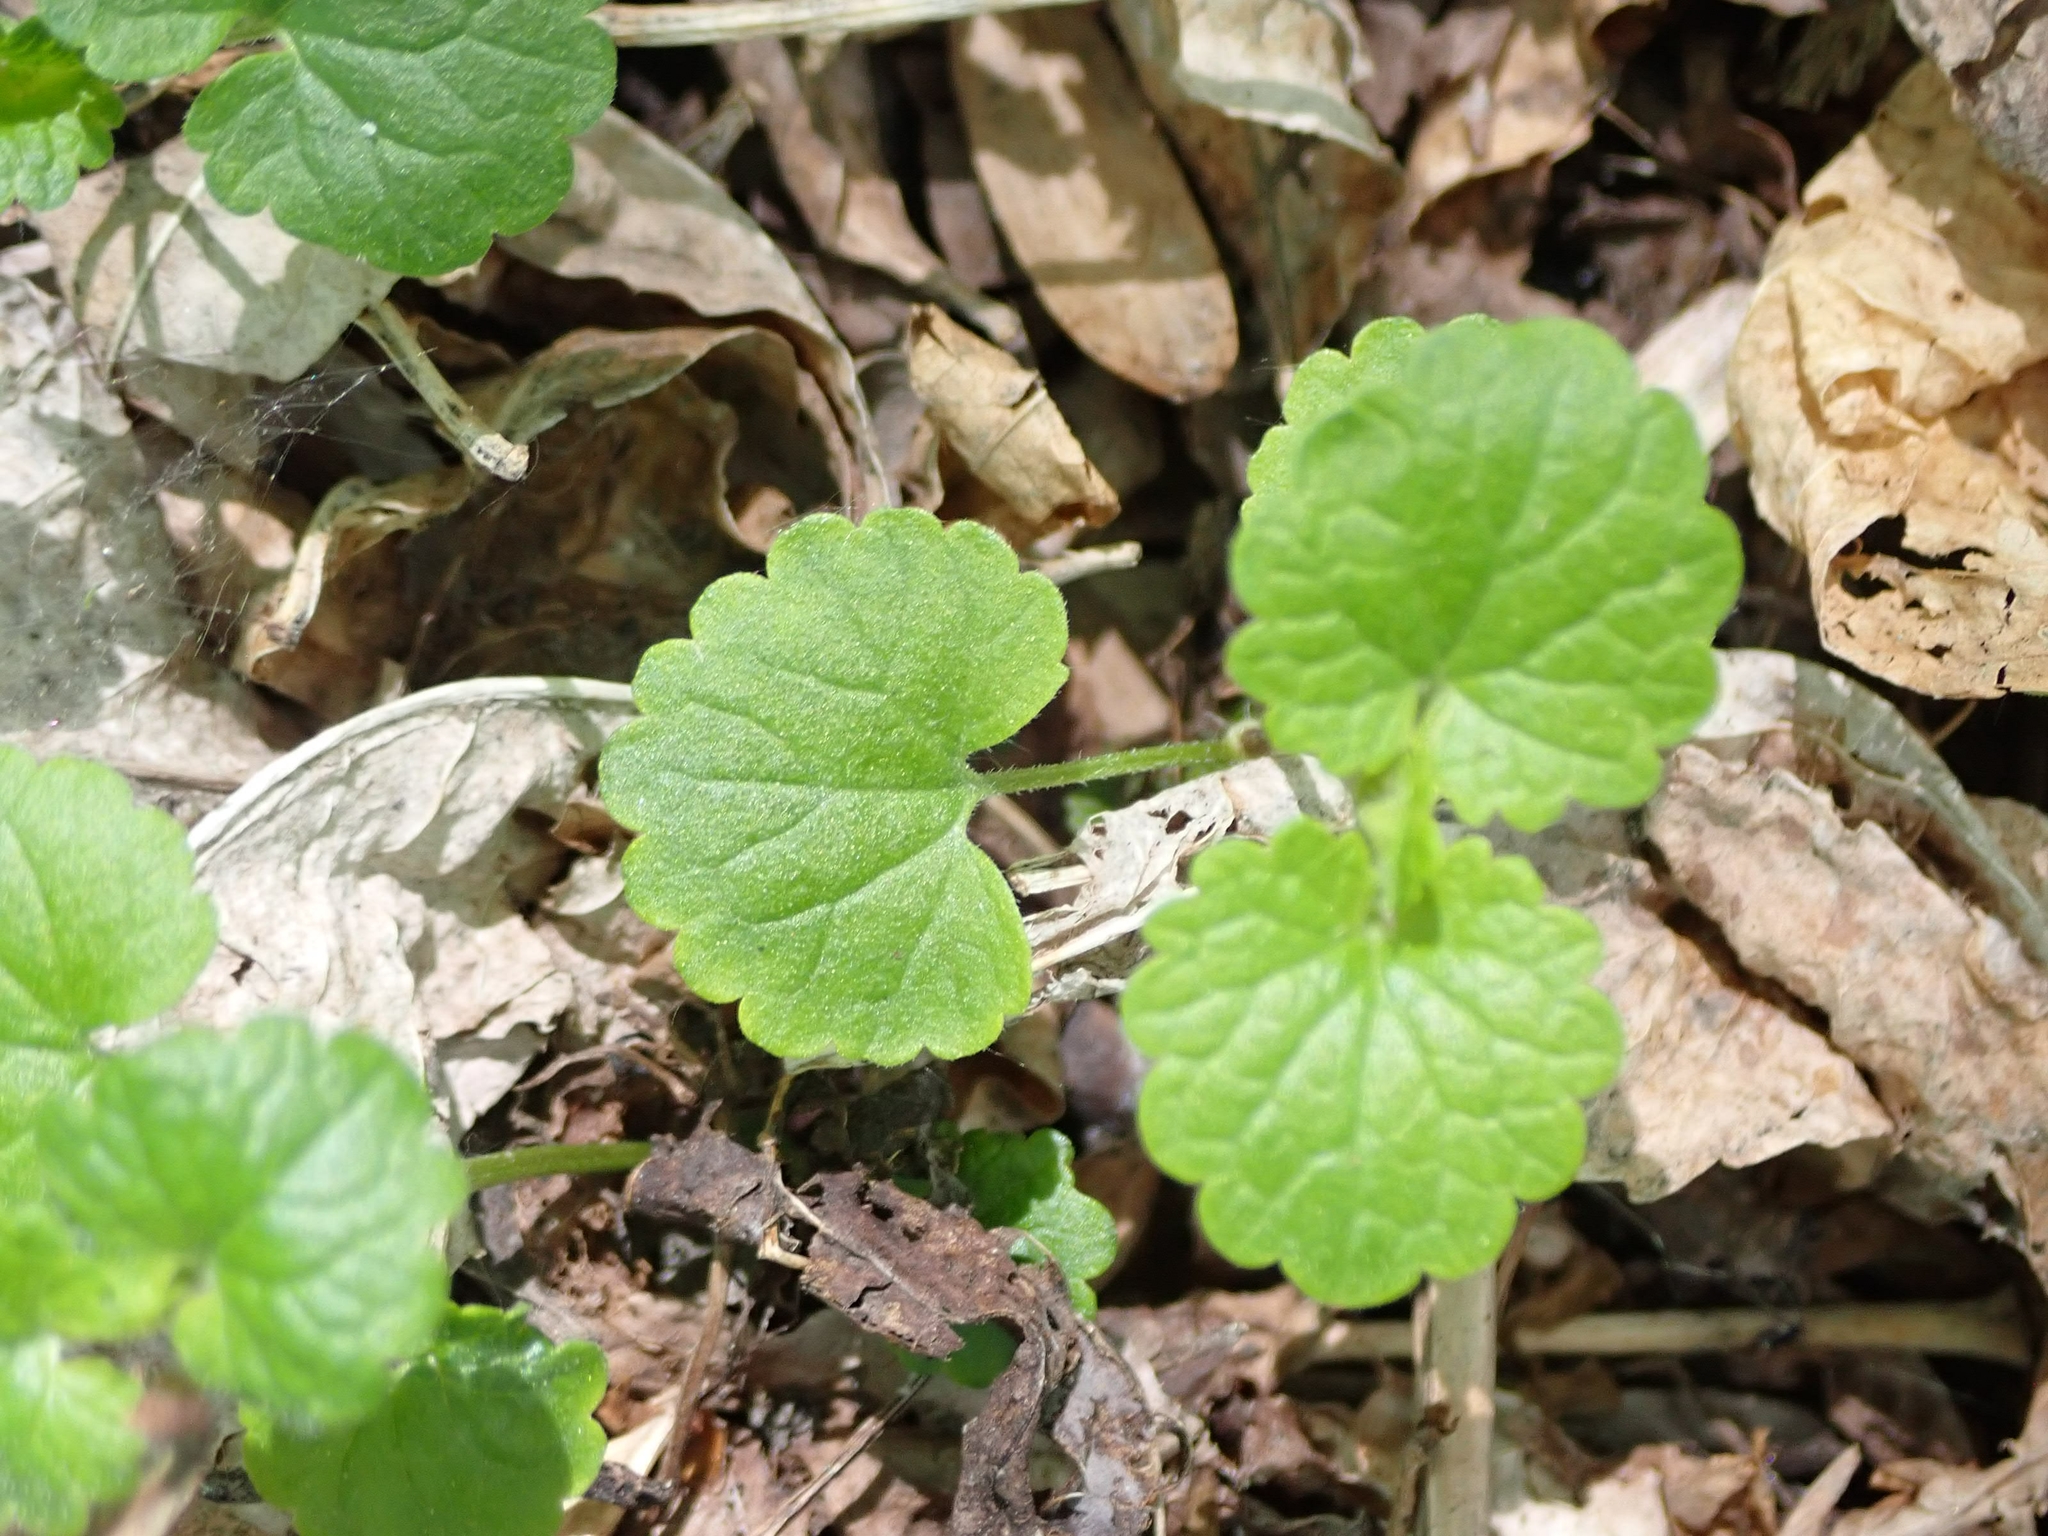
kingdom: Plantae
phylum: Tracheophyta
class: Magnoliopsida
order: Lamiales
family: Lamiaceae
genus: Glechoma
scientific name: Glechoma hederacea
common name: Ground ivy
